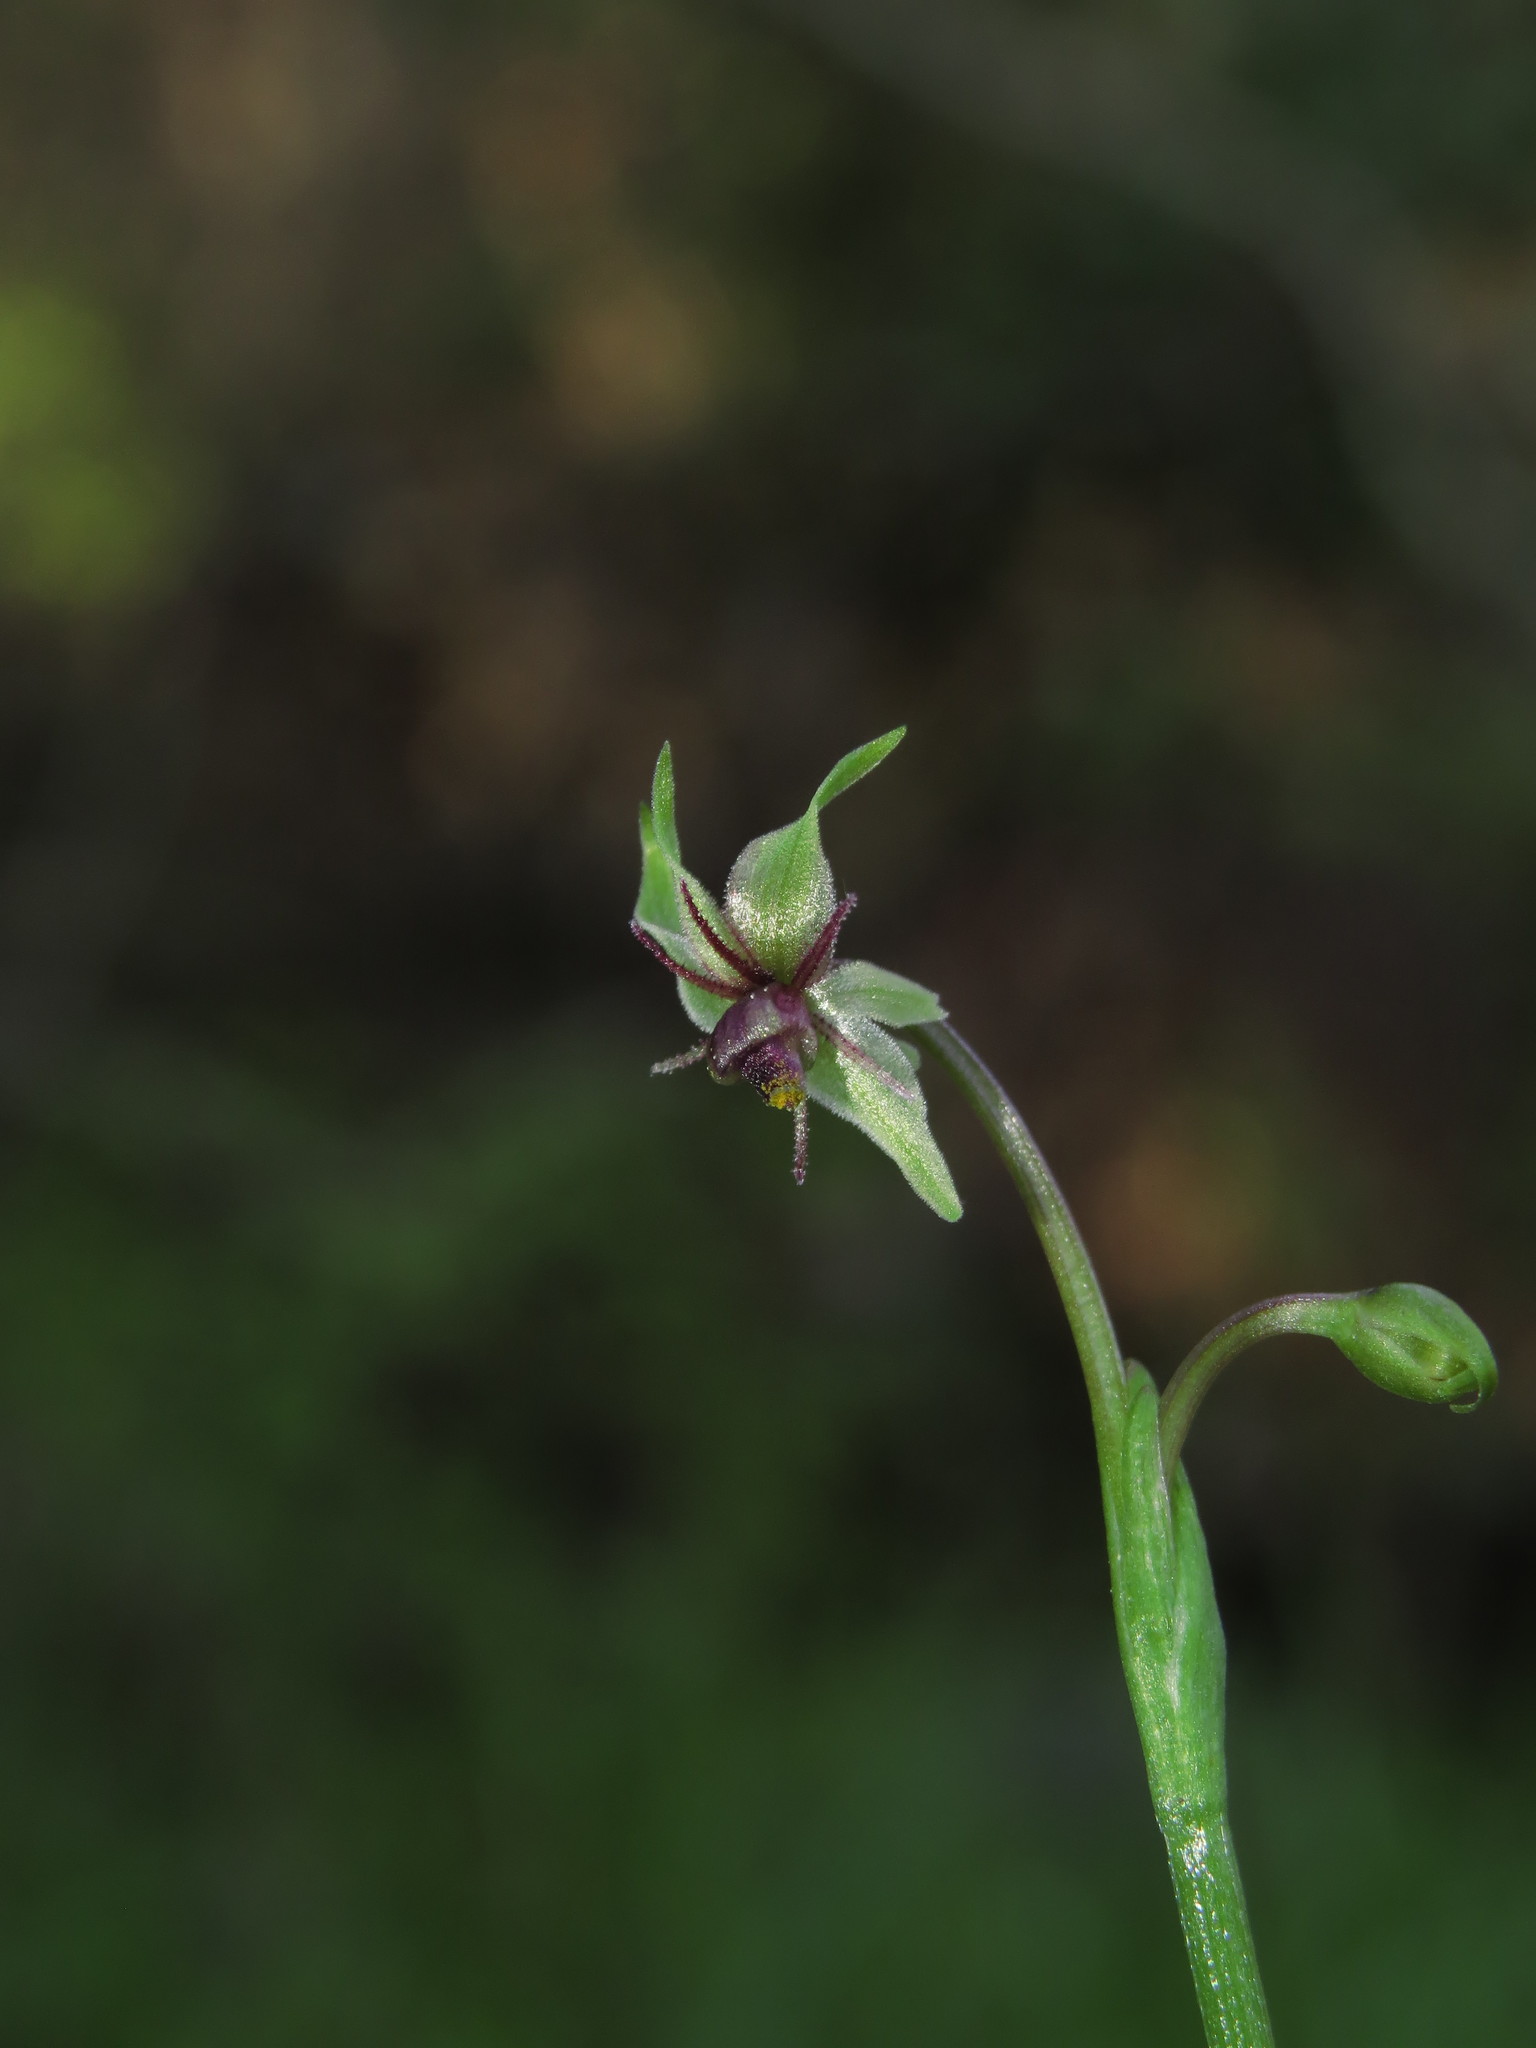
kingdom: Plantae
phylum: Tracheophyta
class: Liliopsida
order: Asparagales
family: Amaryllidaceae
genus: Miersia
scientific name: Miersia chilensis
